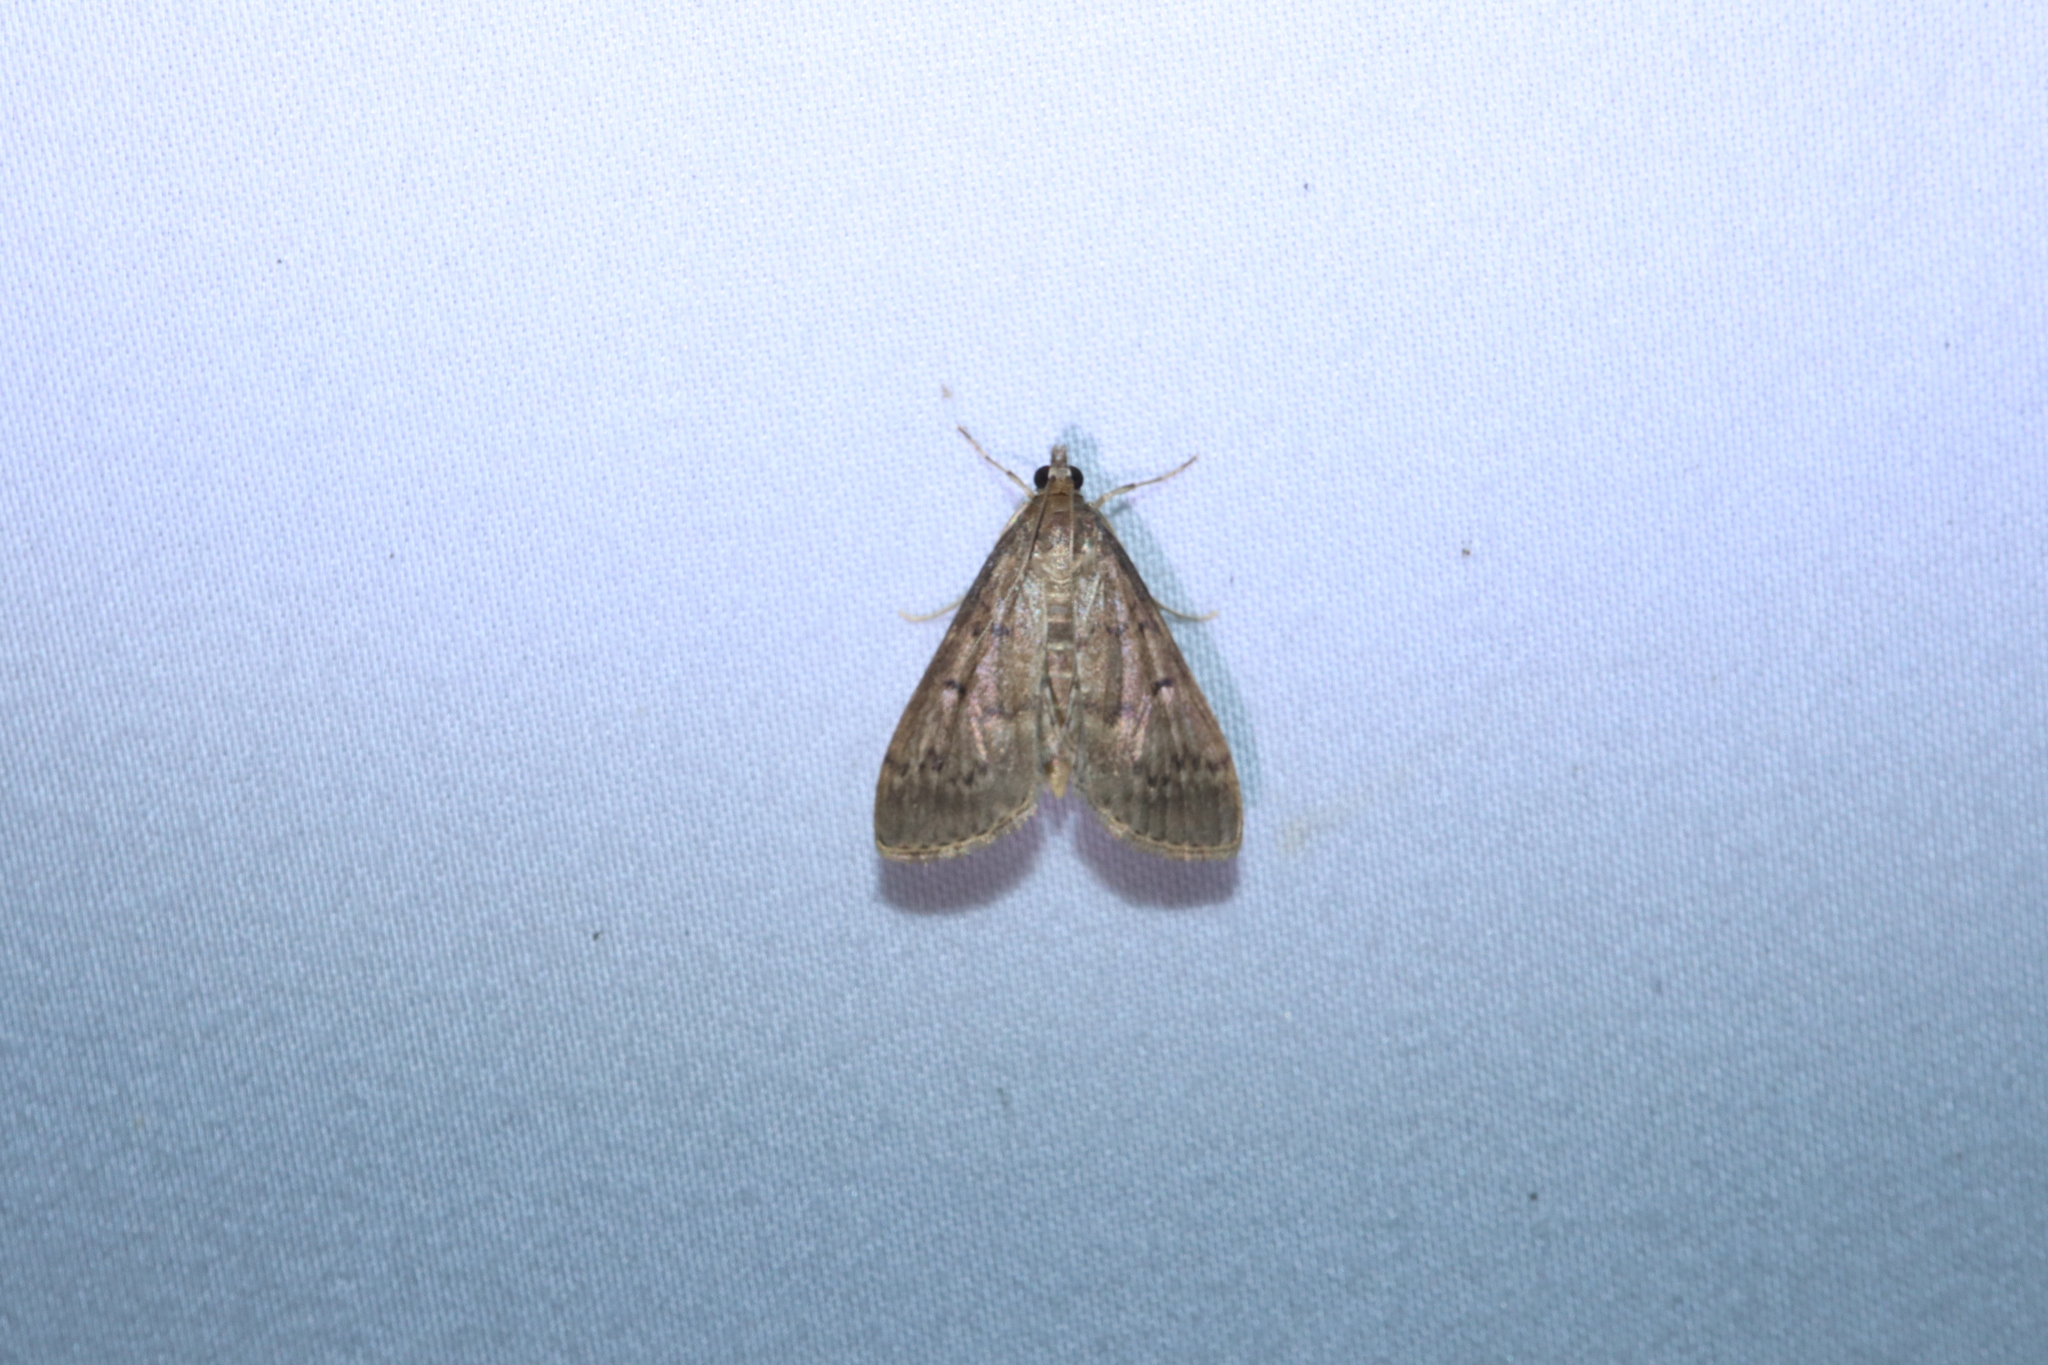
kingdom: Animalia
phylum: Arthropoda
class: Insecta
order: Lepidoptera
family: Crambidae
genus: Herpetogramma
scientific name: Herpetogramma licarsisalis
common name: Grass webworm
